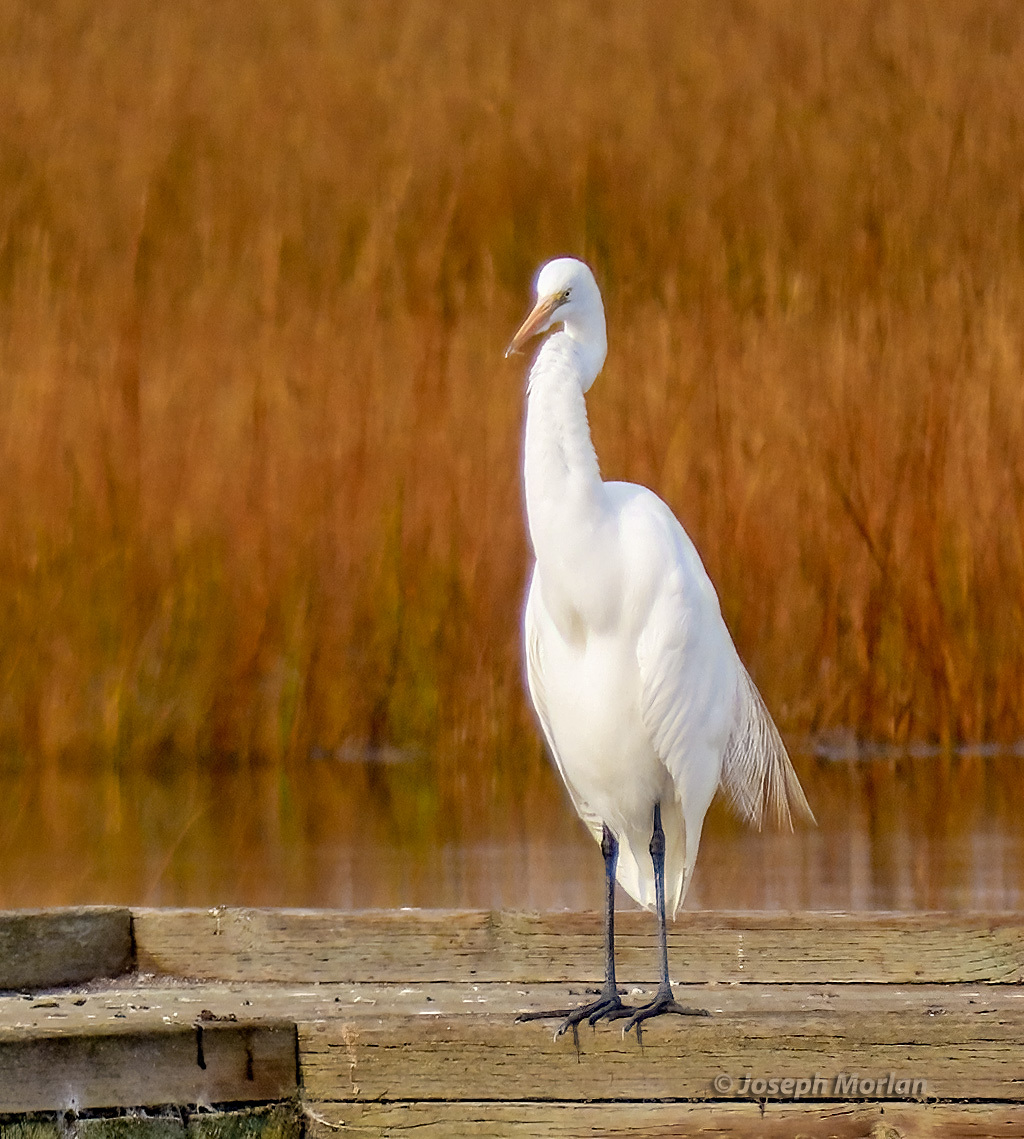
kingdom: Animalia
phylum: Chordata
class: Aves
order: Pelecaniformes
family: Ardeidae
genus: Ardea
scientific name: Ardea alba
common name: Great egret
